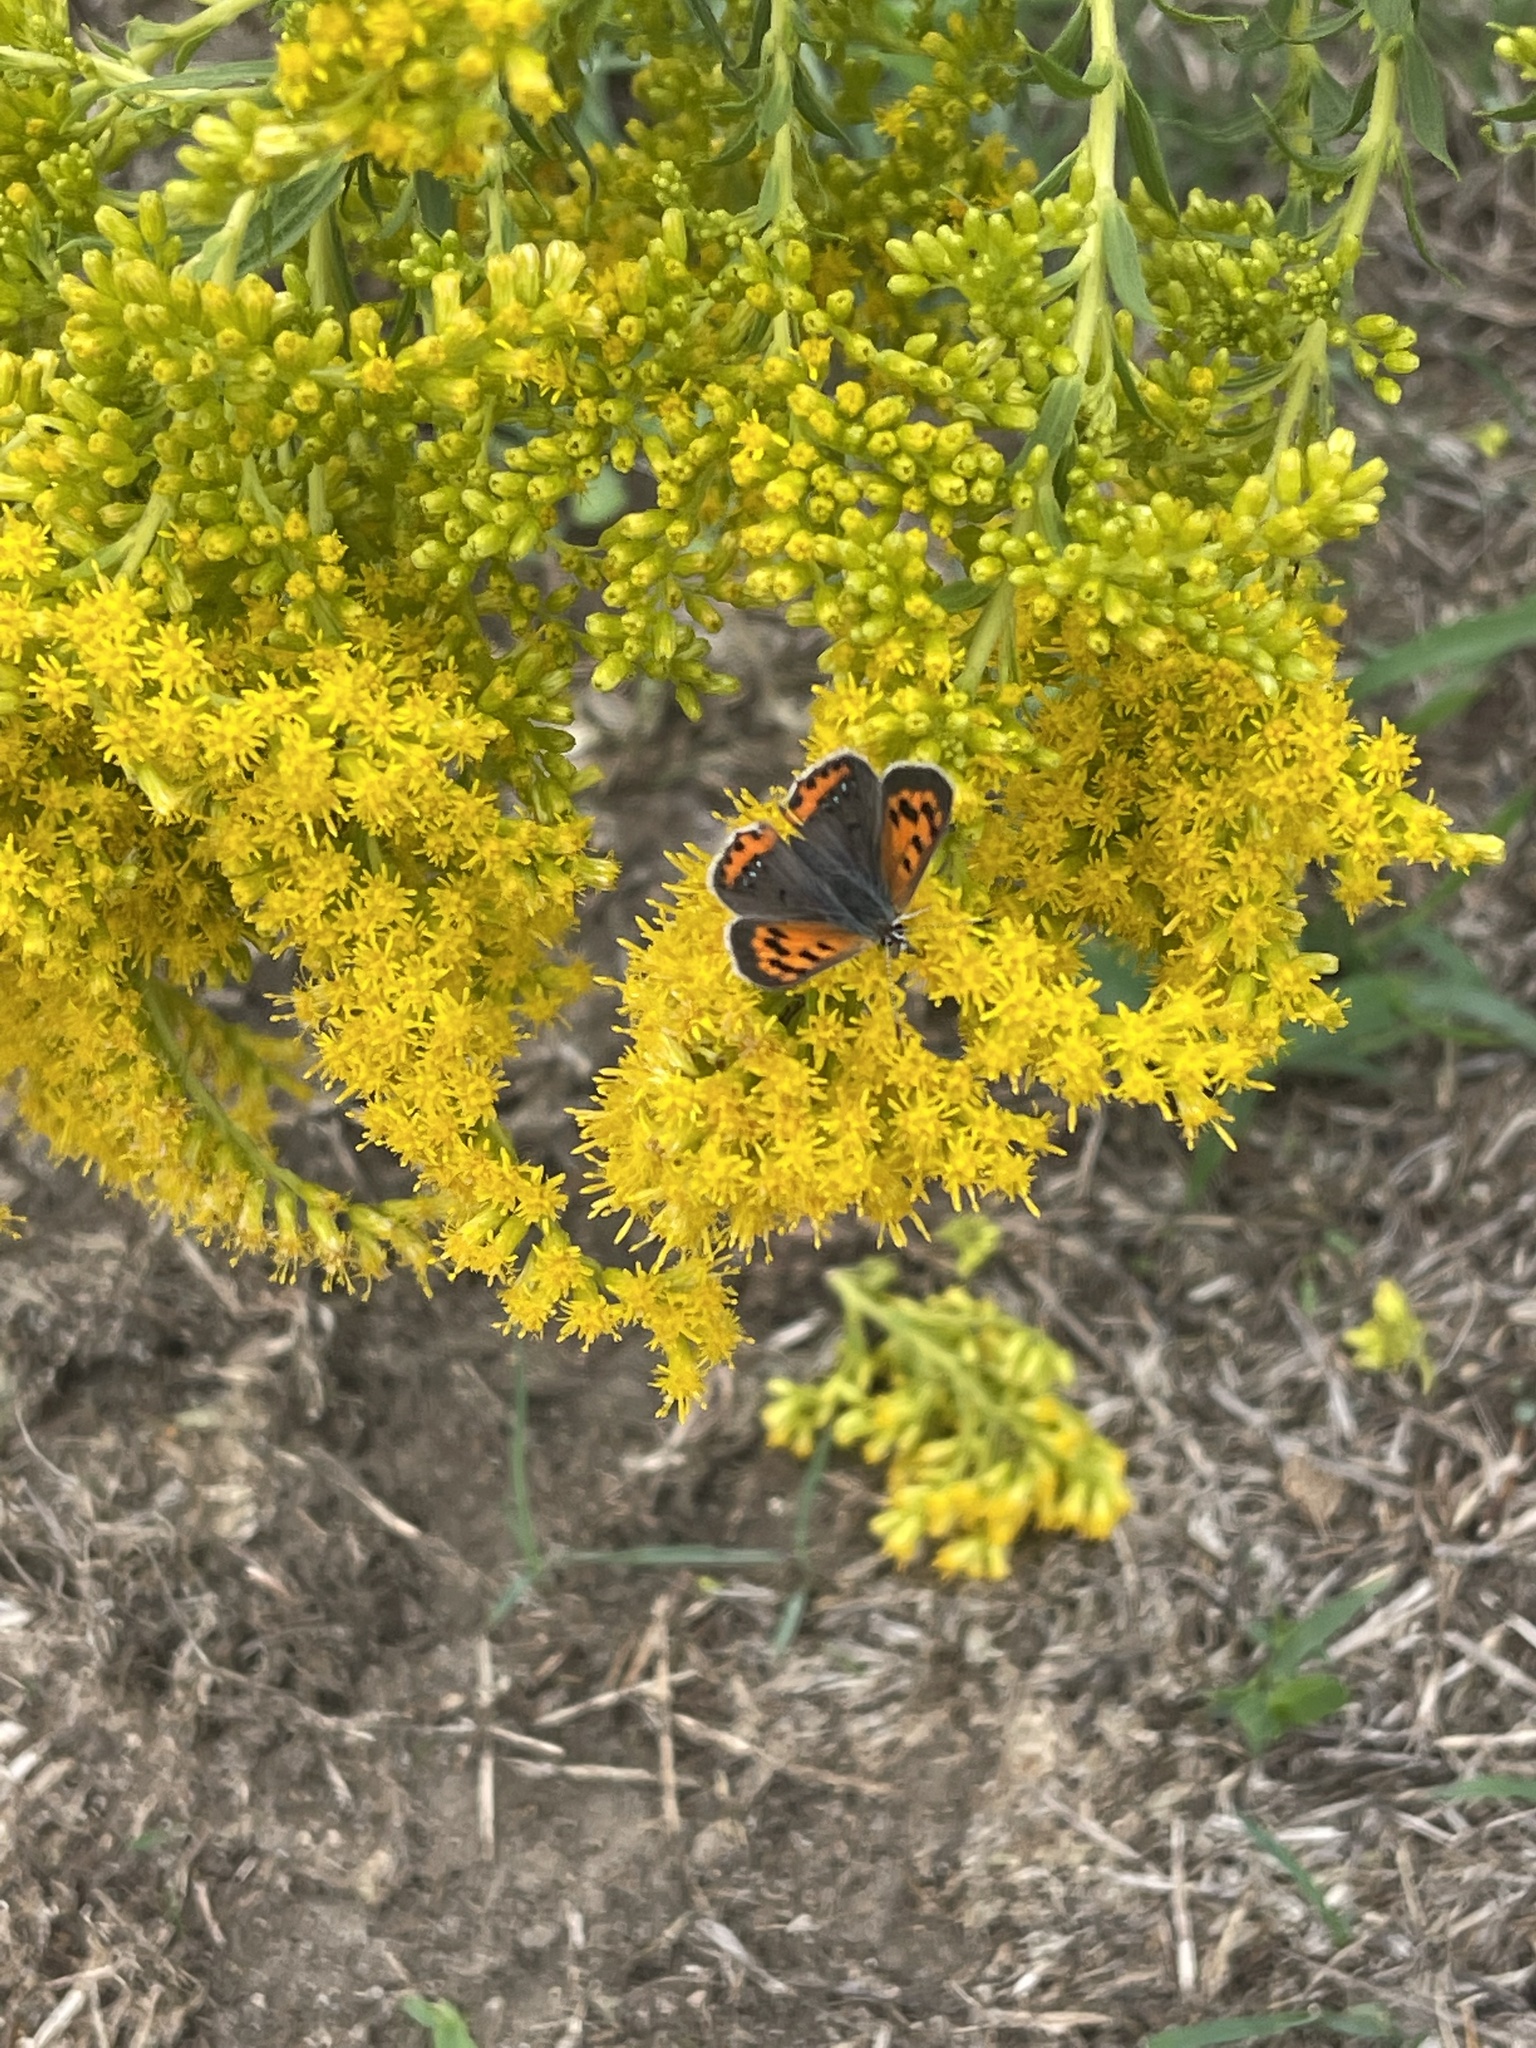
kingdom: Animalia
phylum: Arthropoda
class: Insecta
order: Lepidoptera
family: Lycaenidae
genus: Lycaena
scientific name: Lycaena hypophlaeas
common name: American copper
